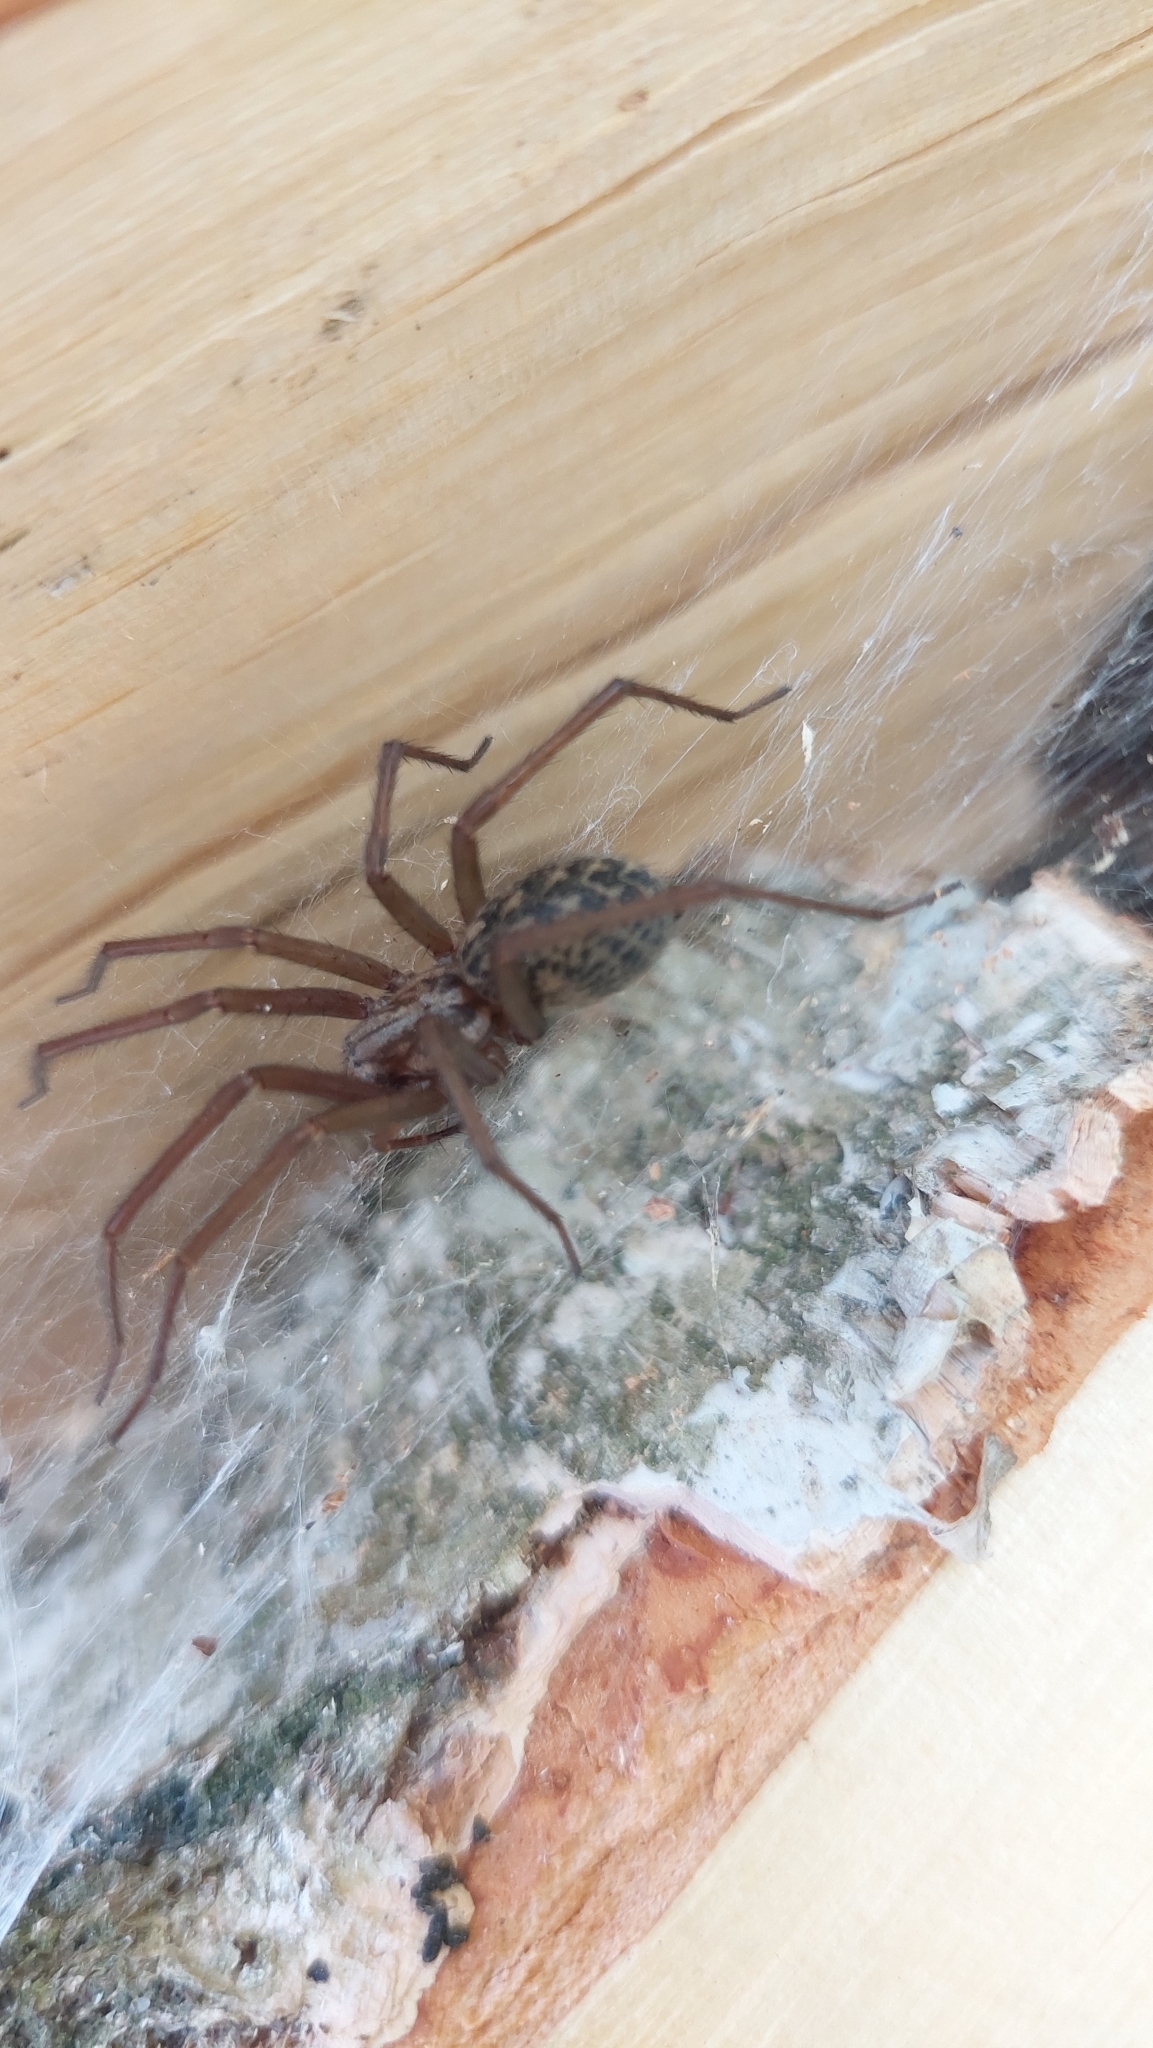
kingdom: Animalia
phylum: Arthropoda
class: Arachnida
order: Araneae
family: Agelenidae
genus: Eratigena
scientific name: Eratigena atrica
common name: Giant house spider
